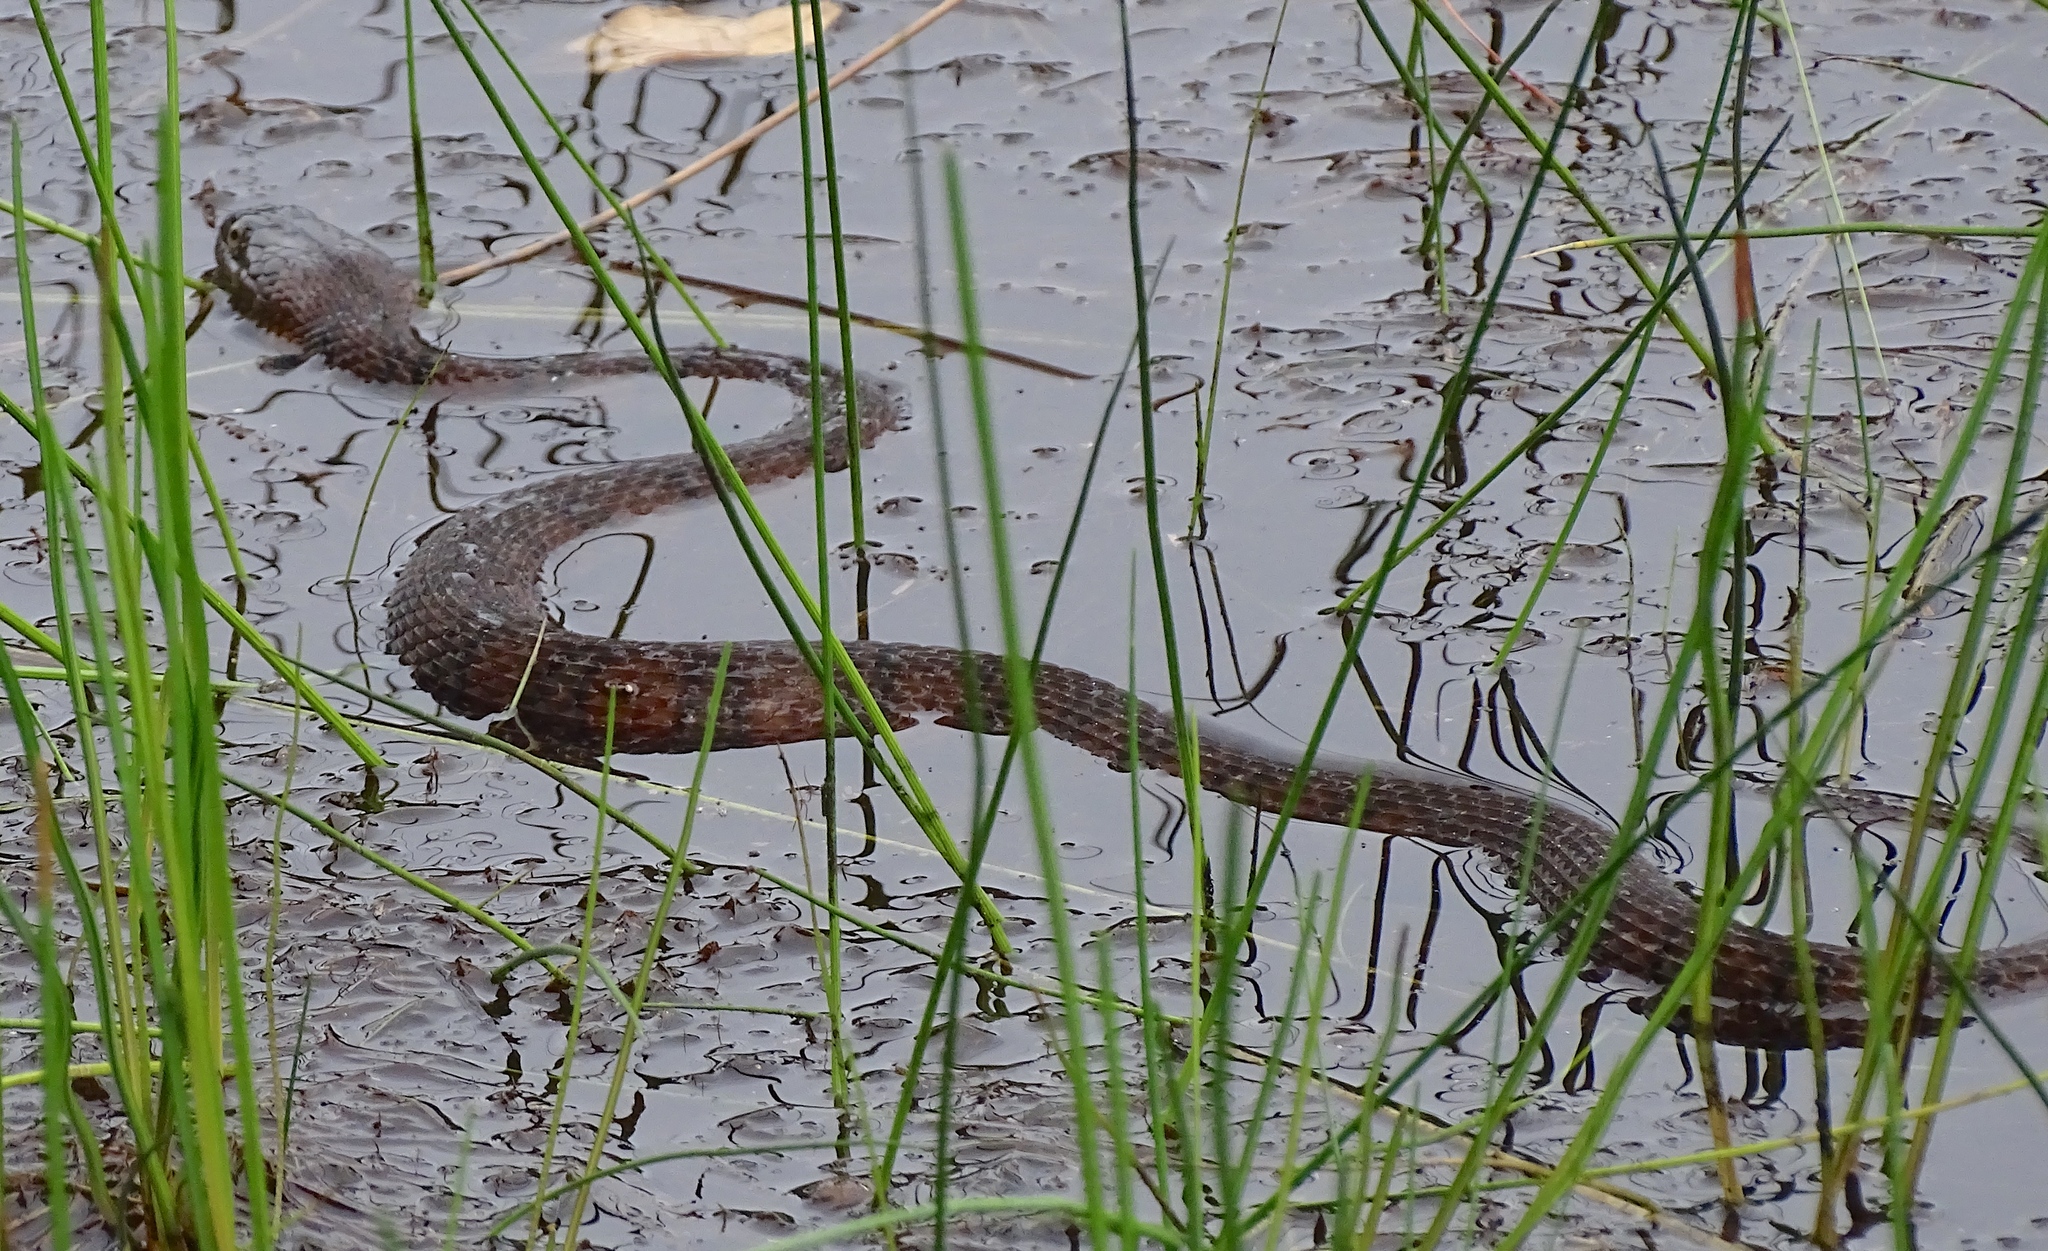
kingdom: Animalia
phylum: Chordata
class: Squamata
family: Colubridae
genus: Nerodia
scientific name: Nerodia sipedon
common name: Northern water snake
